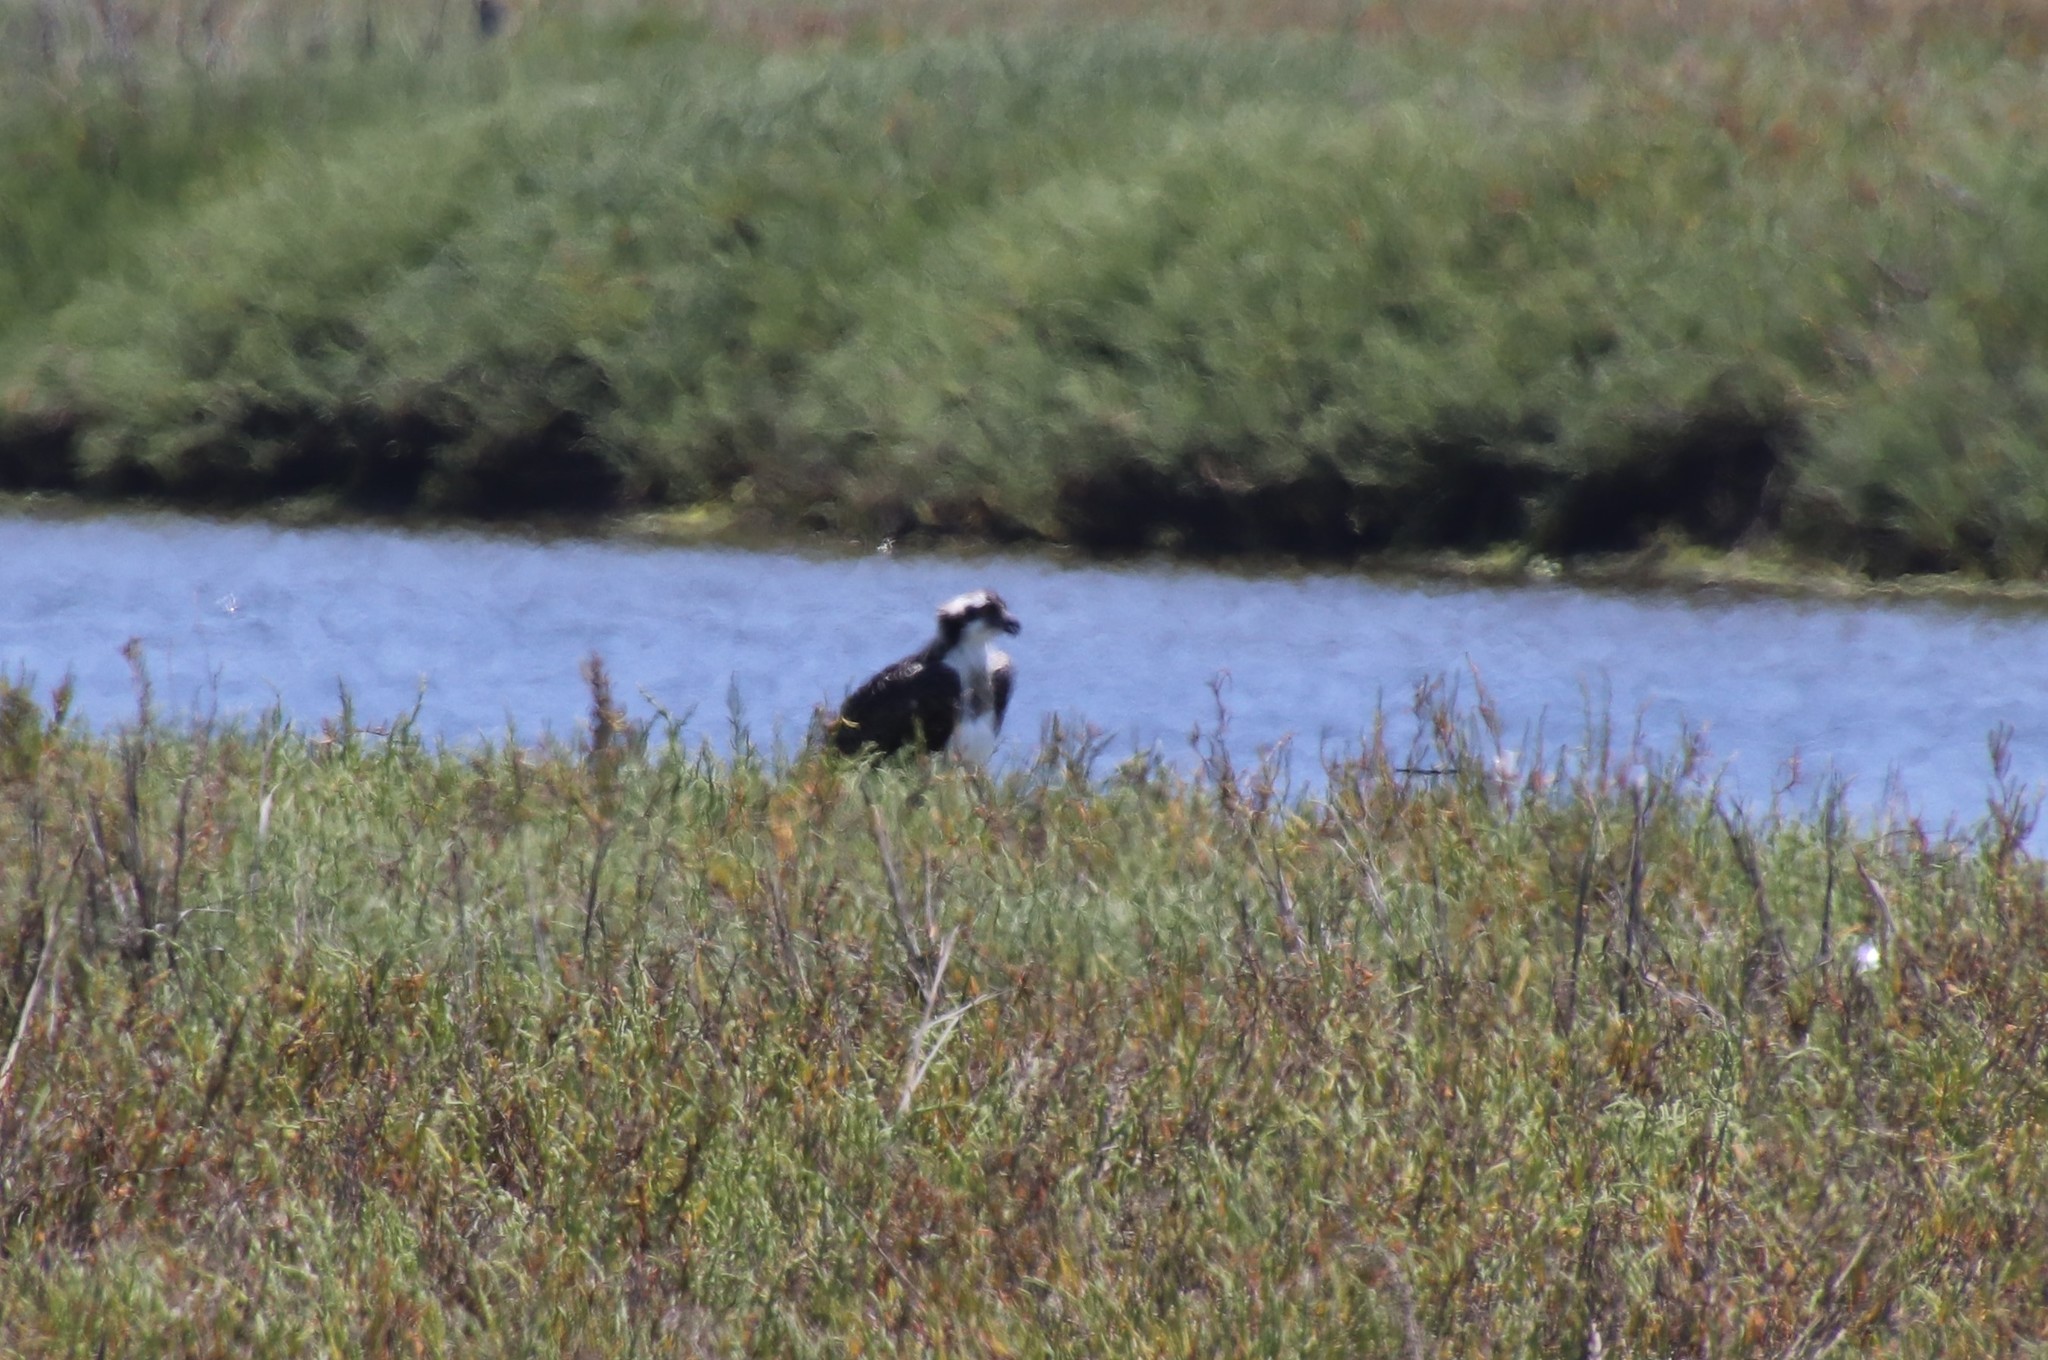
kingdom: Animalia
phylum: Chordata
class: Aves
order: Accipitriformes
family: Pandionidae
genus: Pandion
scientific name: Pandion haliaetus
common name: Osprey
